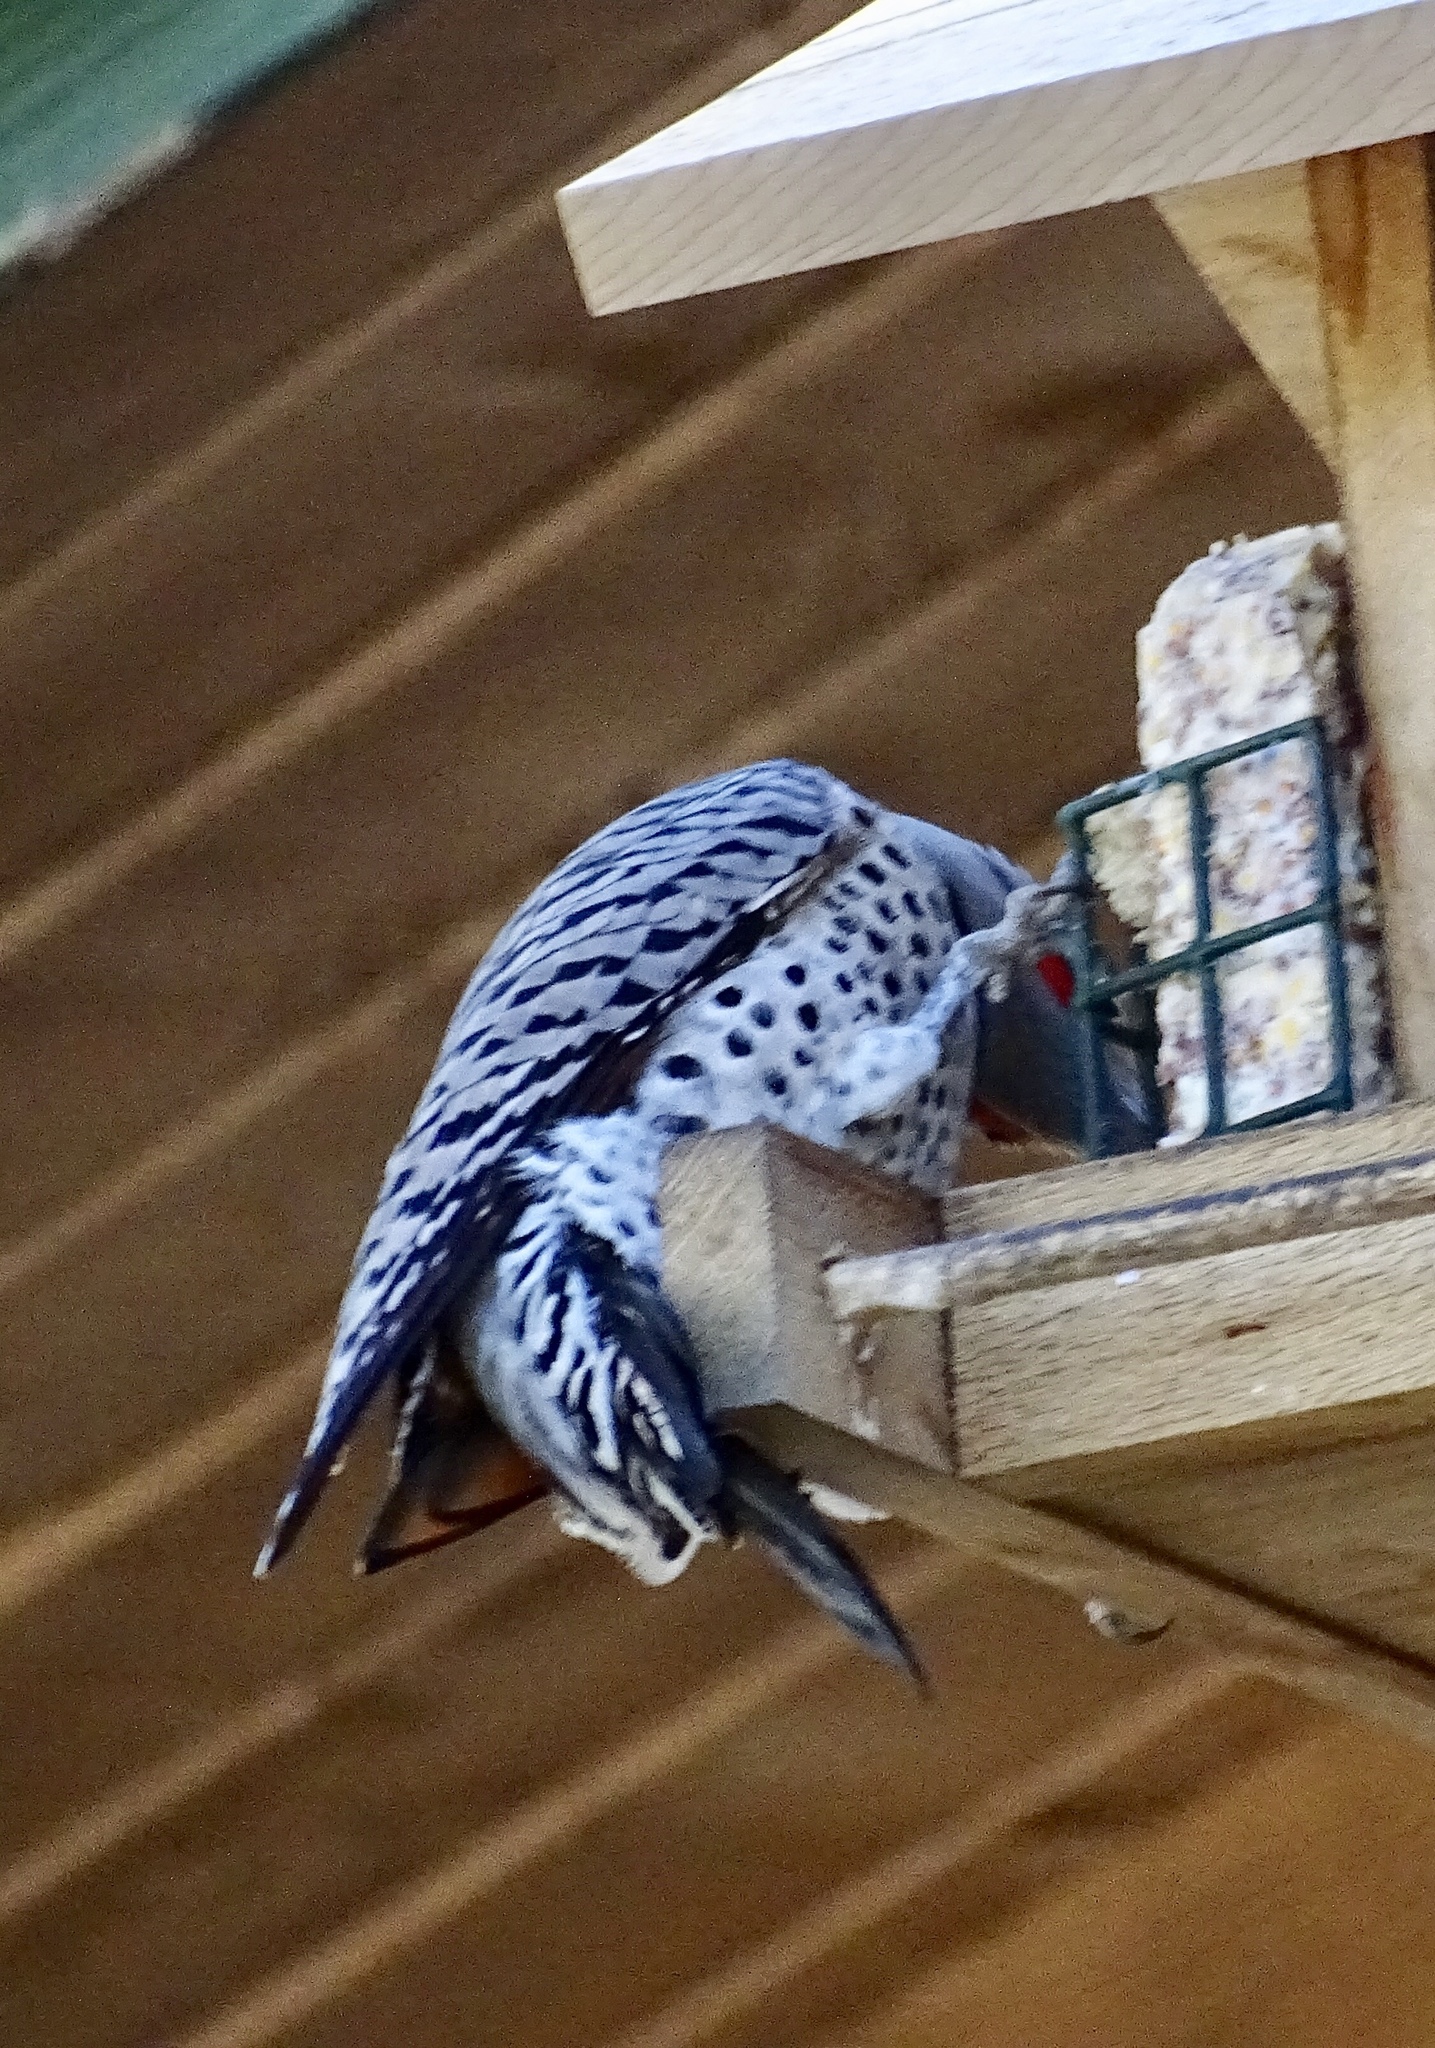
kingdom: Animalia
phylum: Chordata
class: Aves
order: Piciformes
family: Picidae
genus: Colaptes
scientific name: Colaptes auratus
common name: Northern flicker
